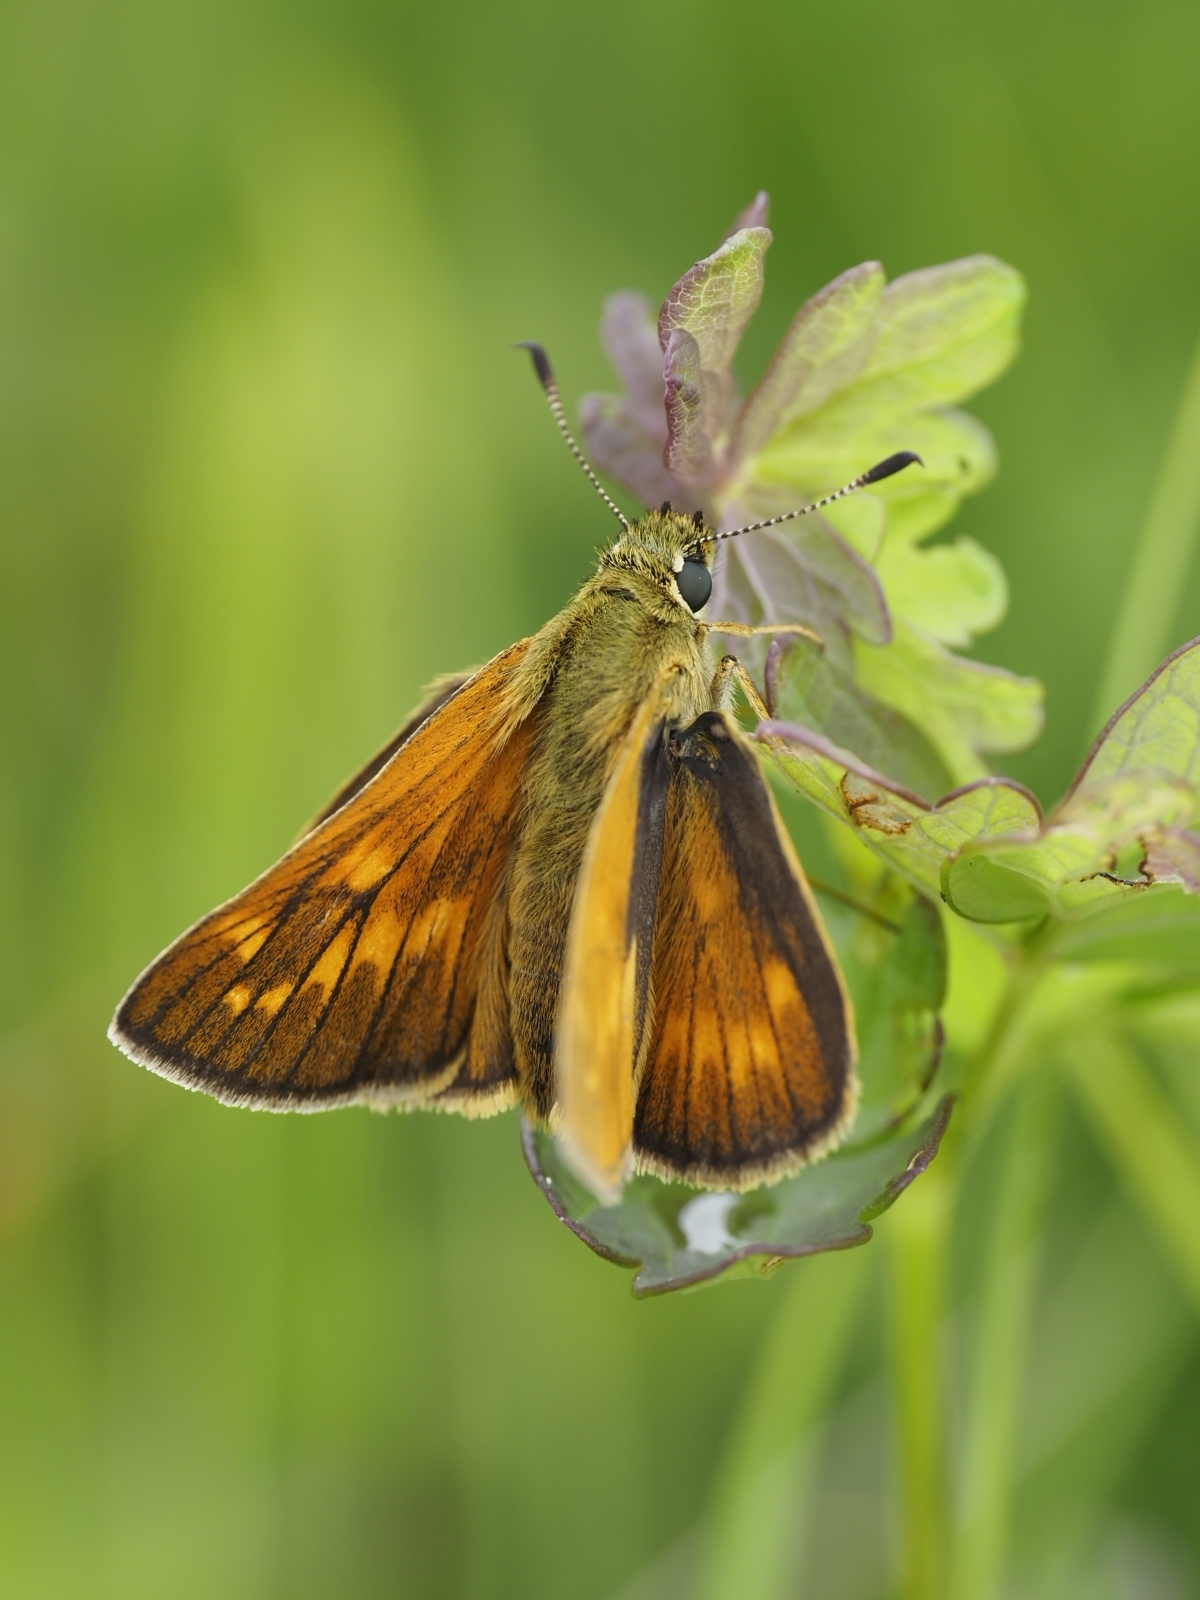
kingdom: Animalia
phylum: Arthropoda
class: Insecta
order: Lepidoptera
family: Hesperiidae
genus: Ochlodes
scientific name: Ochlodes venata
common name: Large skipper
